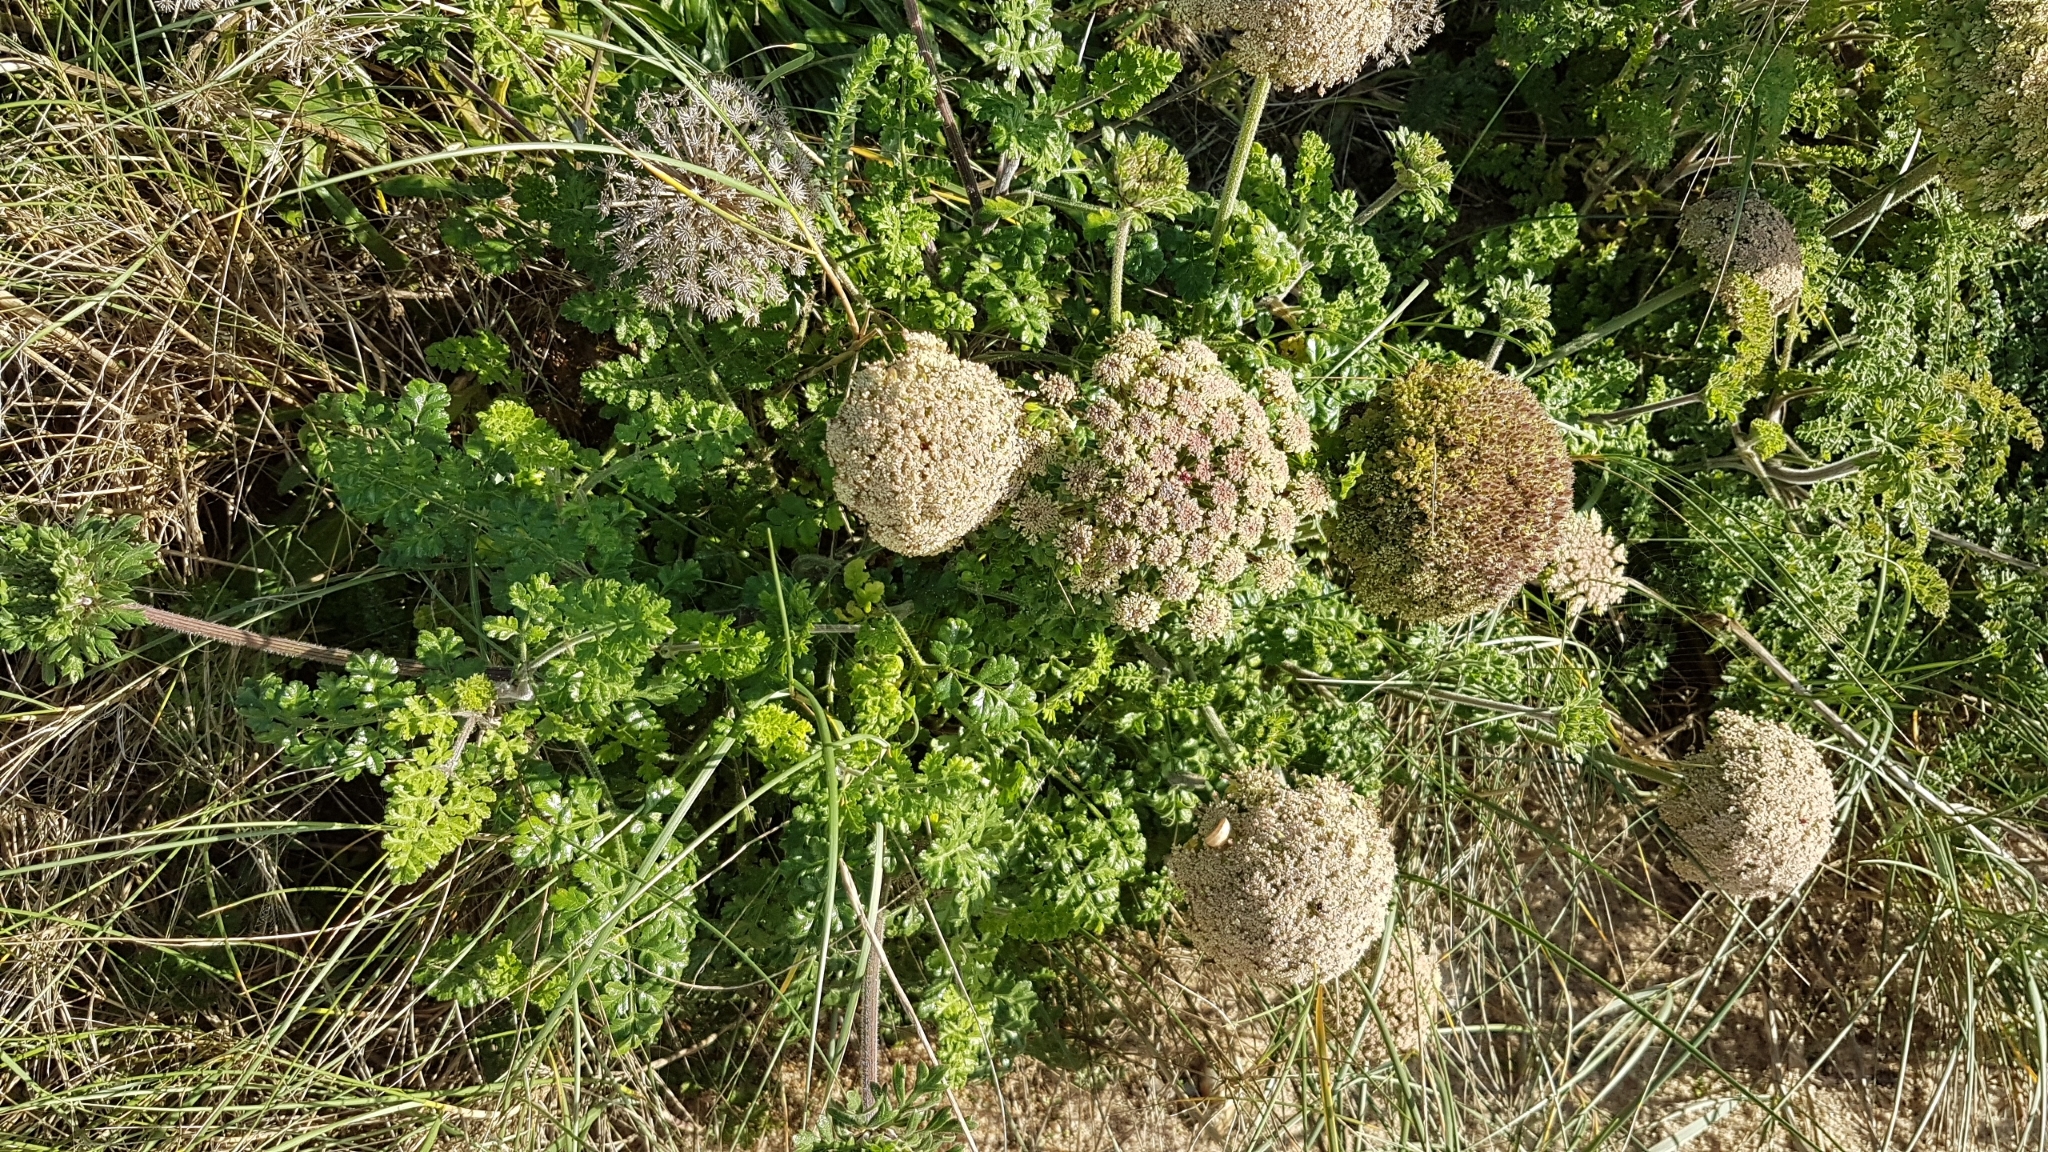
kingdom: Plantae
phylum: Tracheophyta
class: Magnoliopsida
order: Apiales
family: Apiaceae
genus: Daucus
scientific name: Daucus carota
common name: Wild carrot
